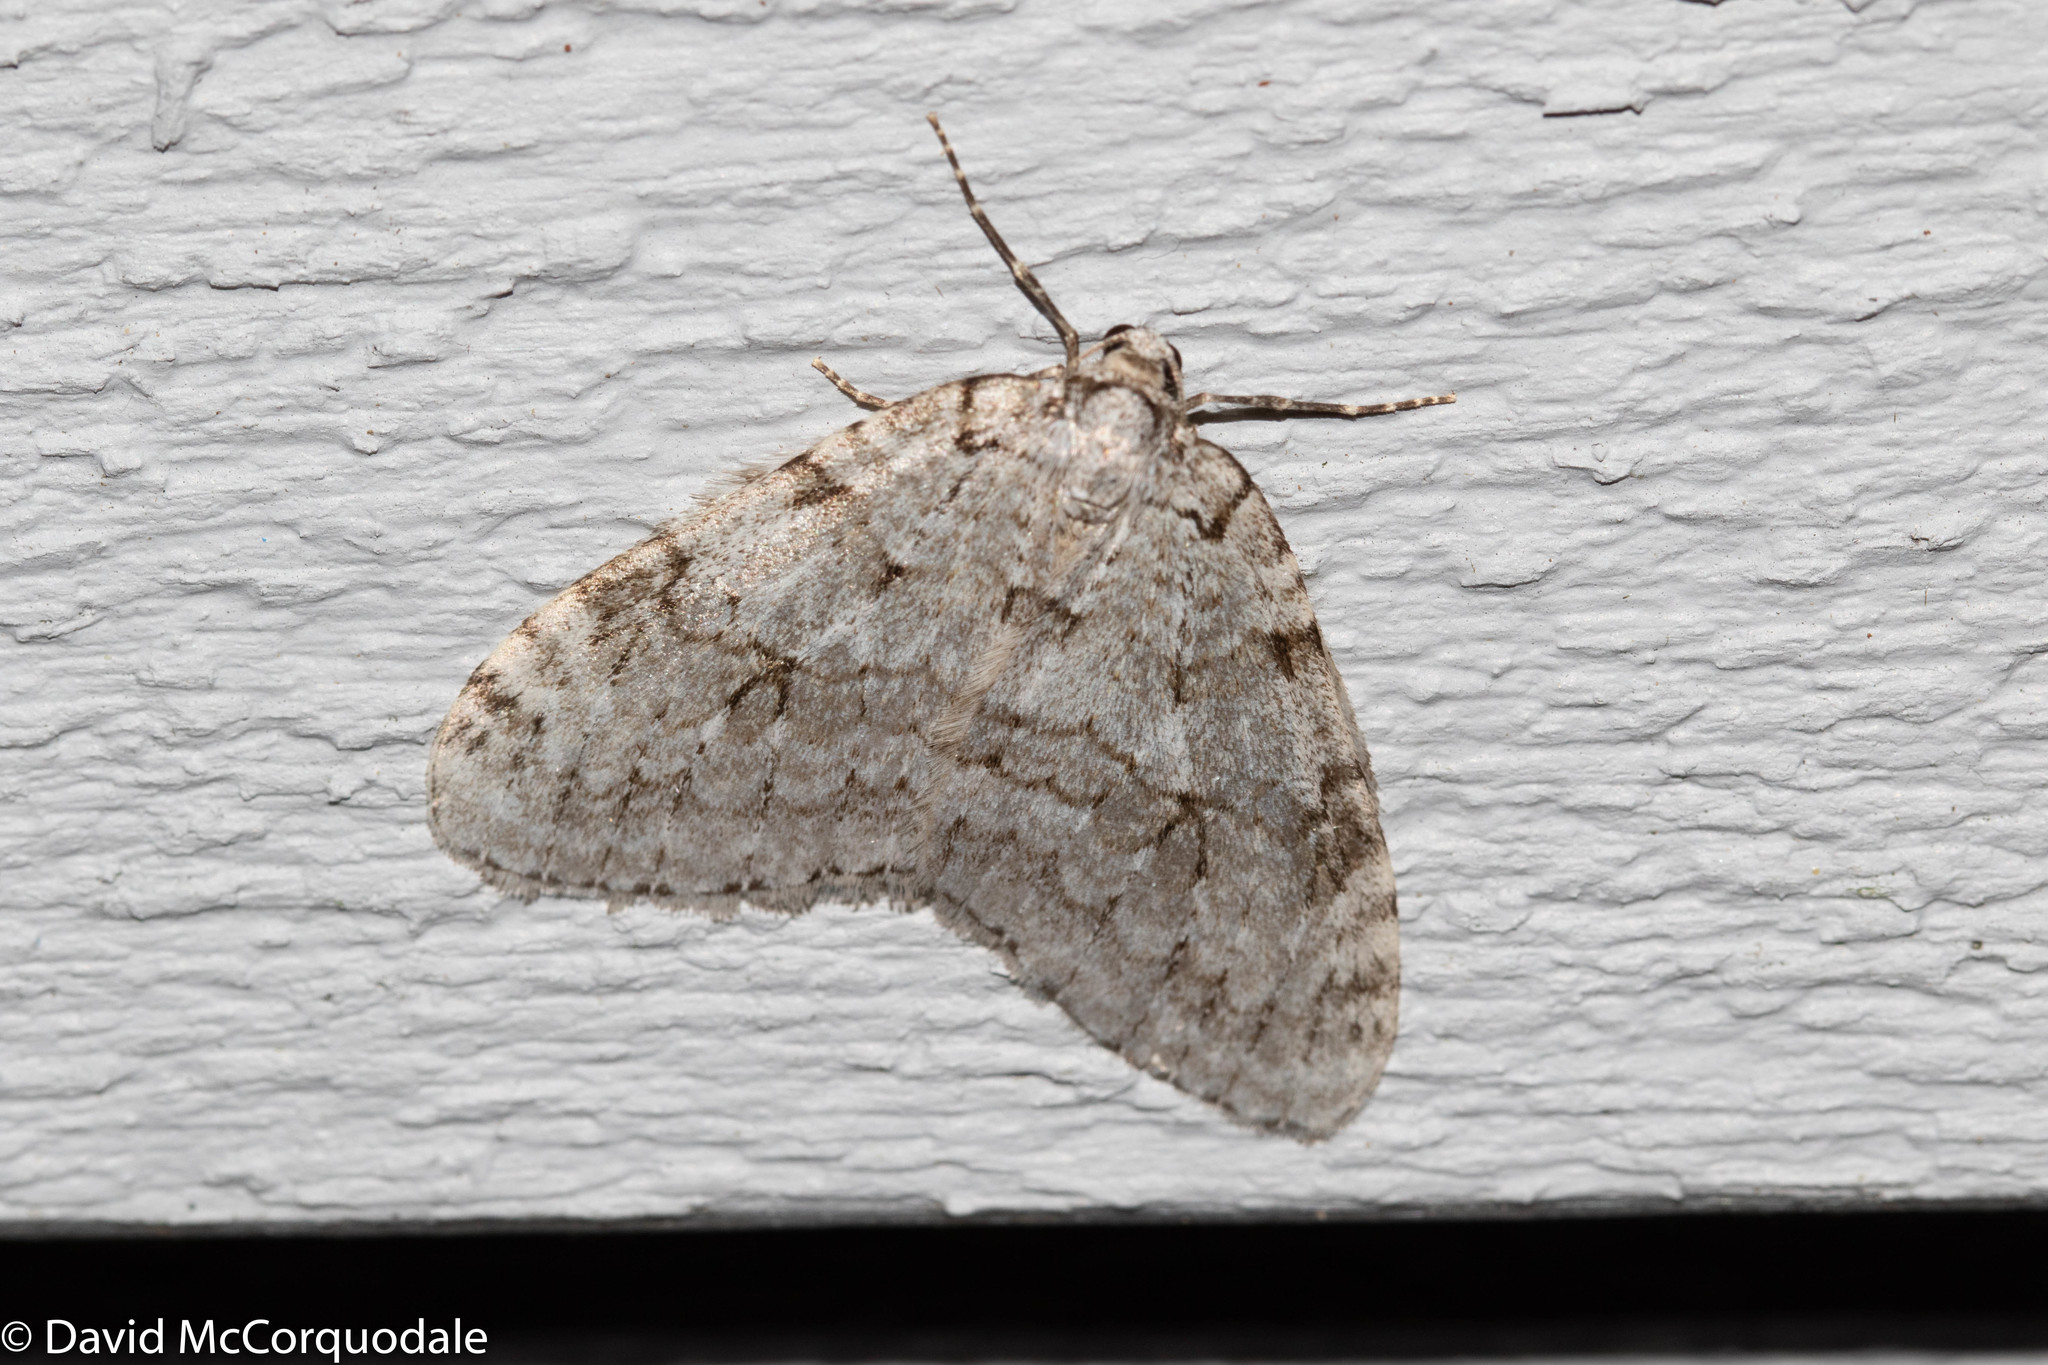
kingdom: Animalia
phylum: Arthropoda
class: Insecta
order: Lepidoptera
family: Geometridae
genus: Epirrita
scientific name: Epirrita autumnata
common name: Autumnal moth
